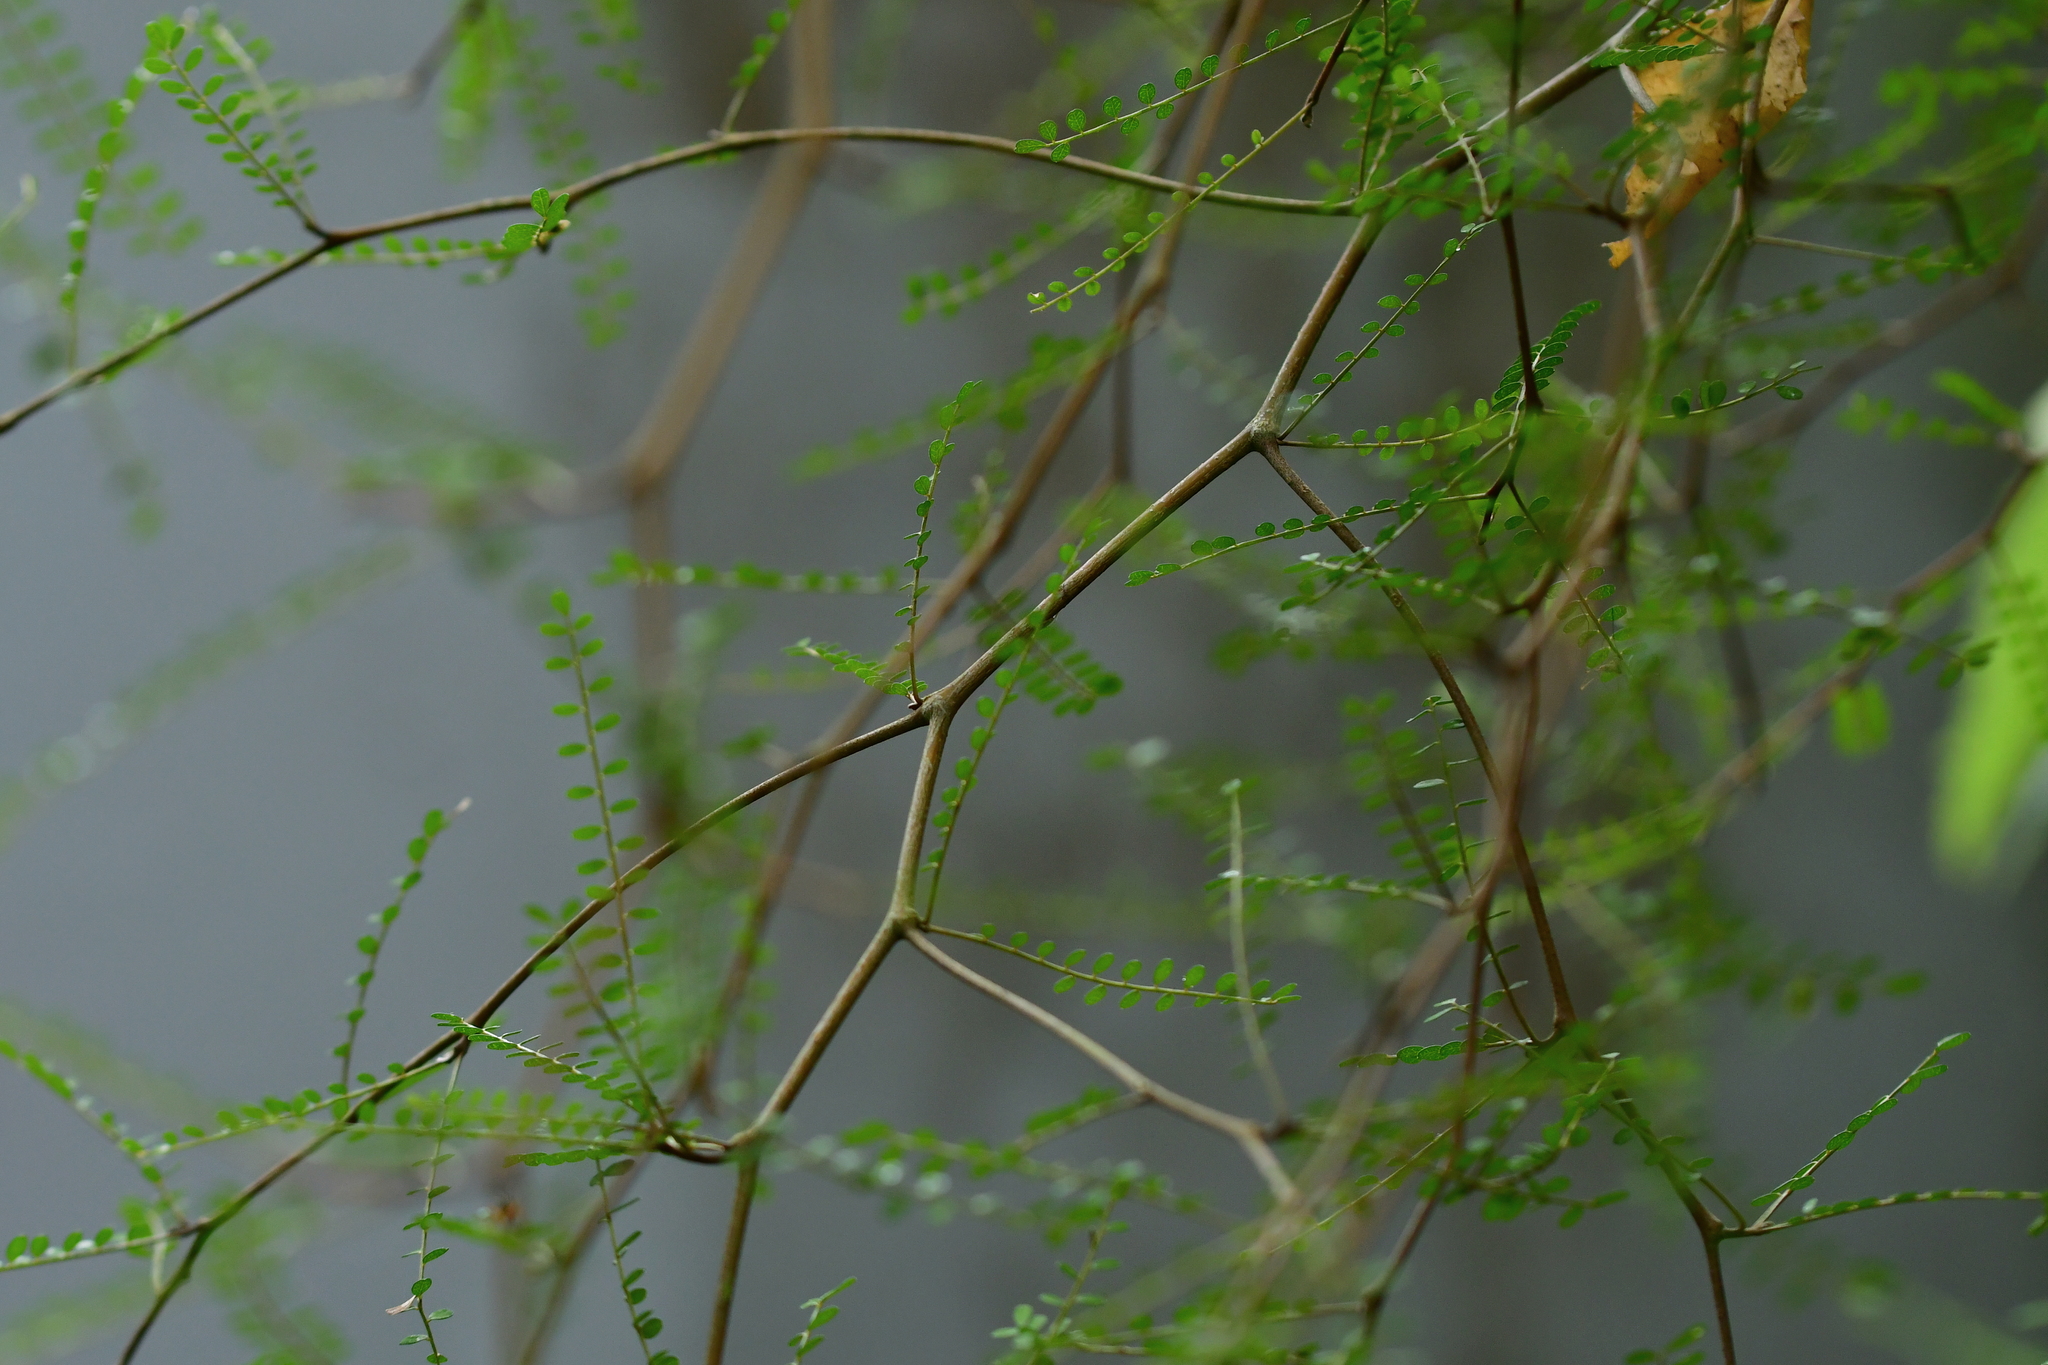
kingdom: Plantae
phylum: Tracheophyta
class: Magnoliopsida
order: Fabales
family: Fabaceae
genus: Sophora
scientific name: Sophora microphylla
